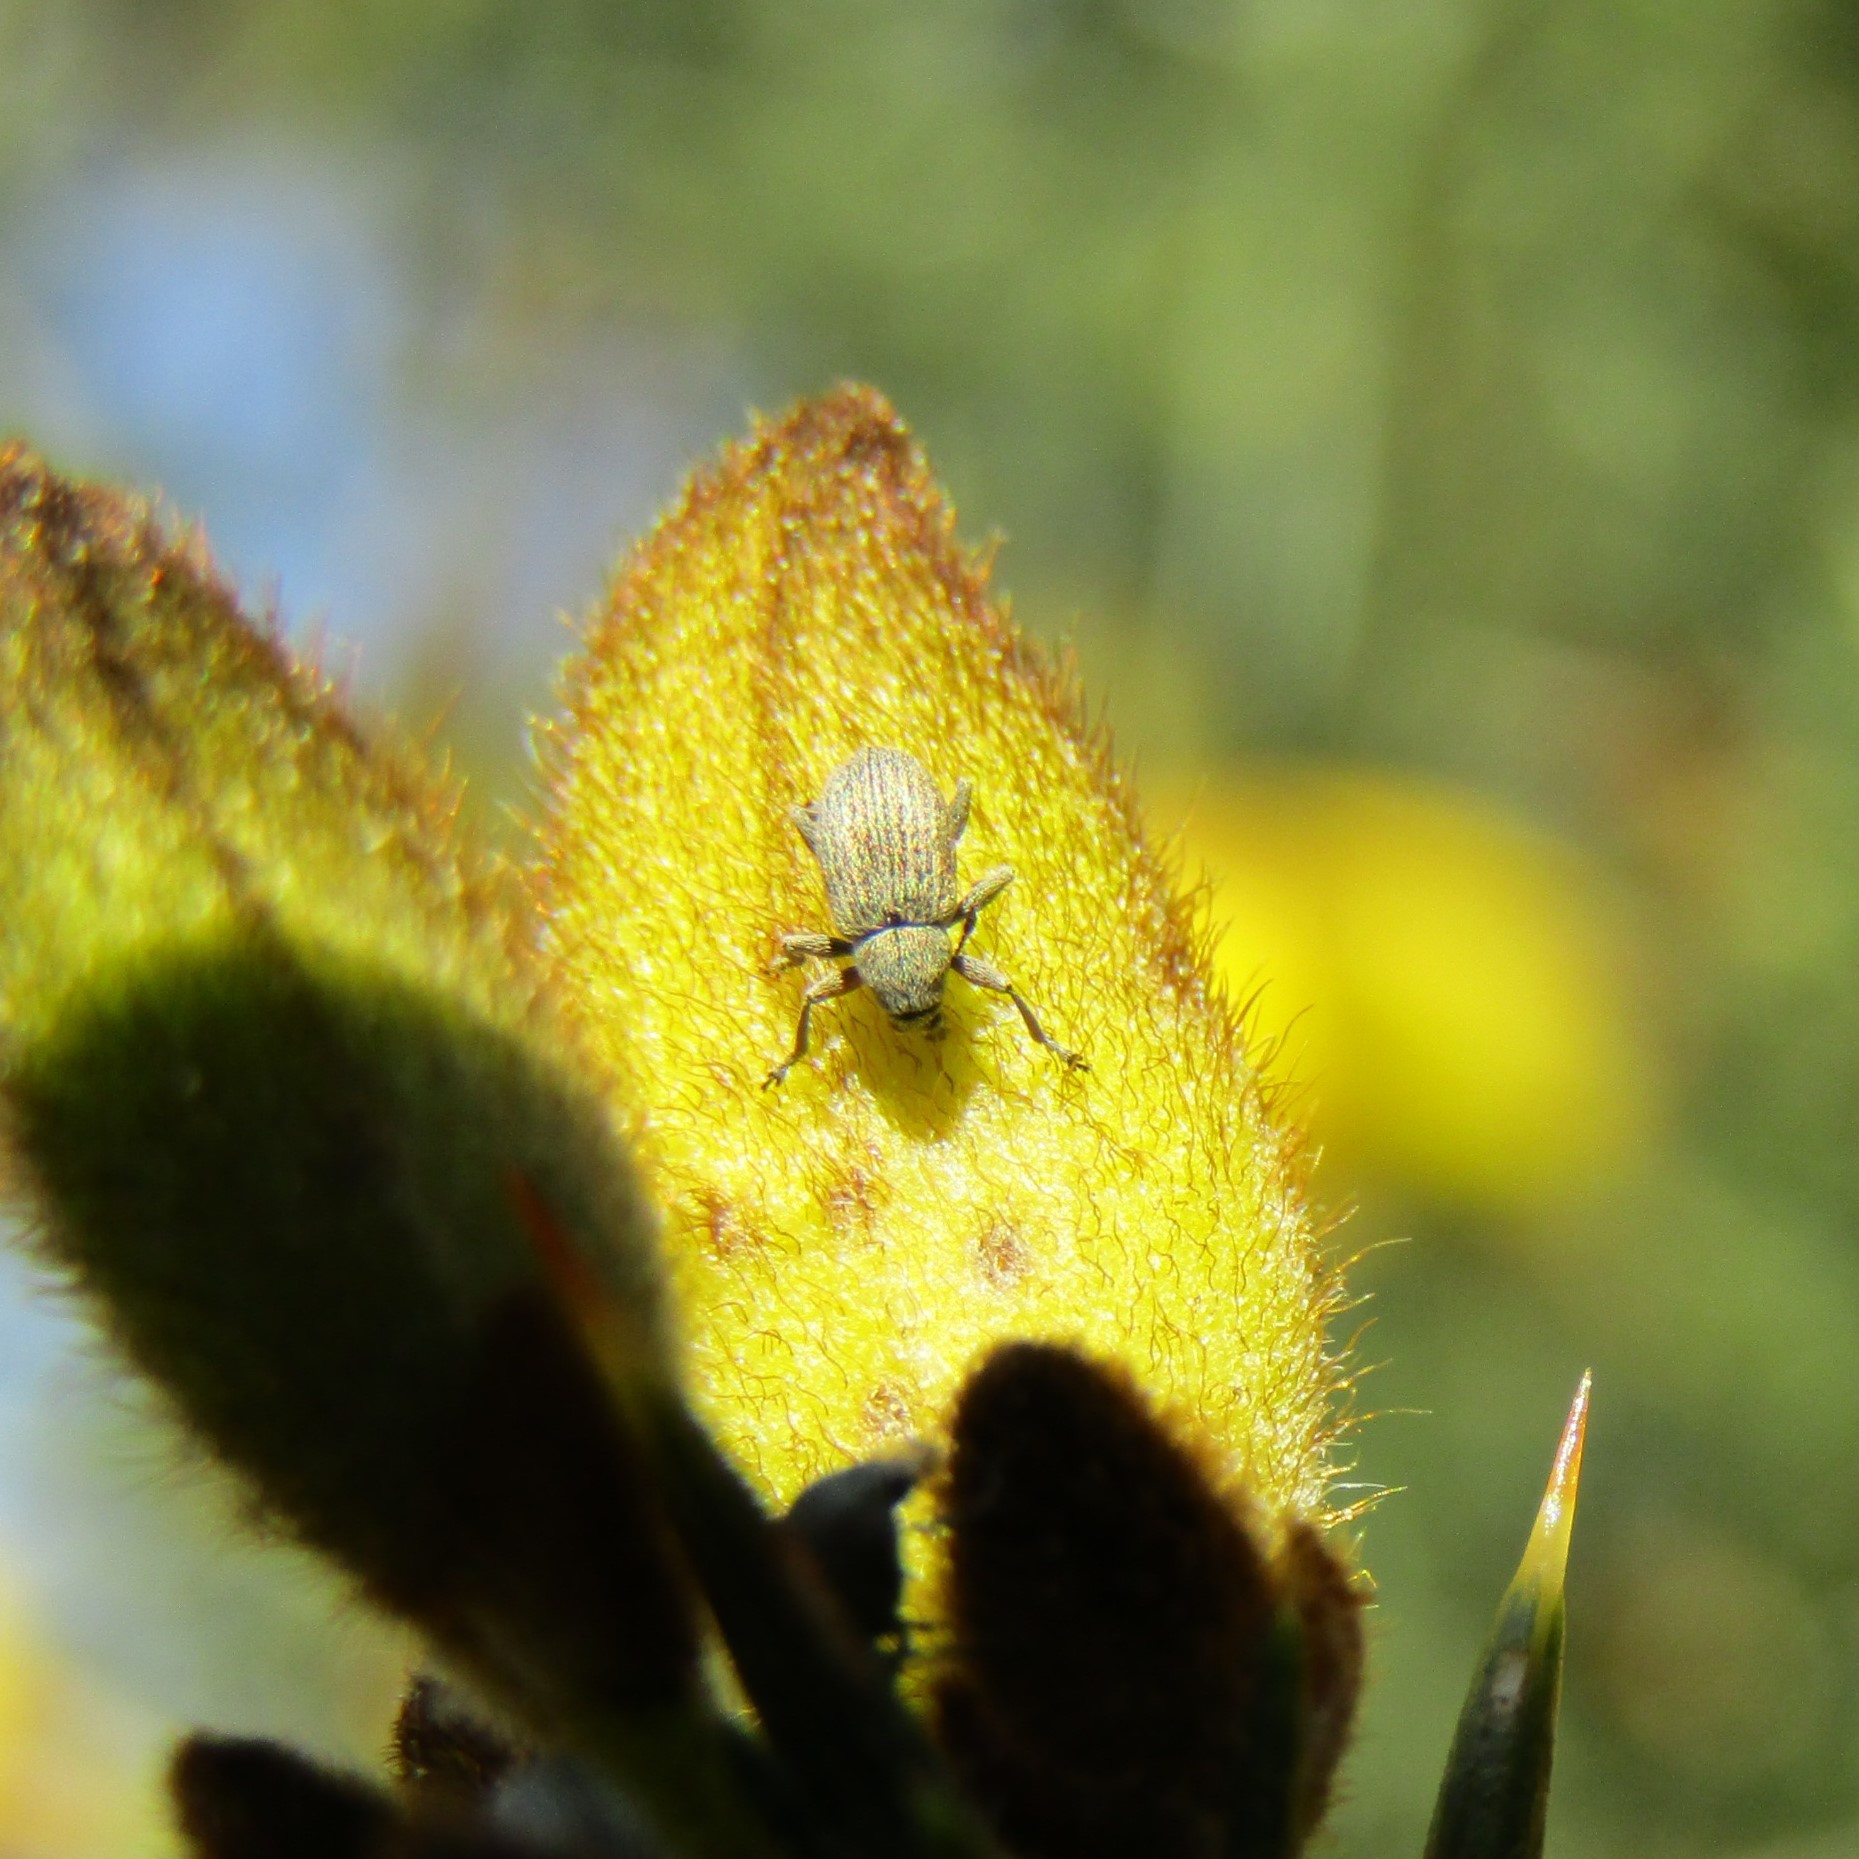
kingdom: Animalia
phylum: Arthropoda
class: Insecta
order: Coleoptera
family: Brentidae
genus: Exapion
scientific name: Exapion ulicis
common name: Gorse seed weevil
